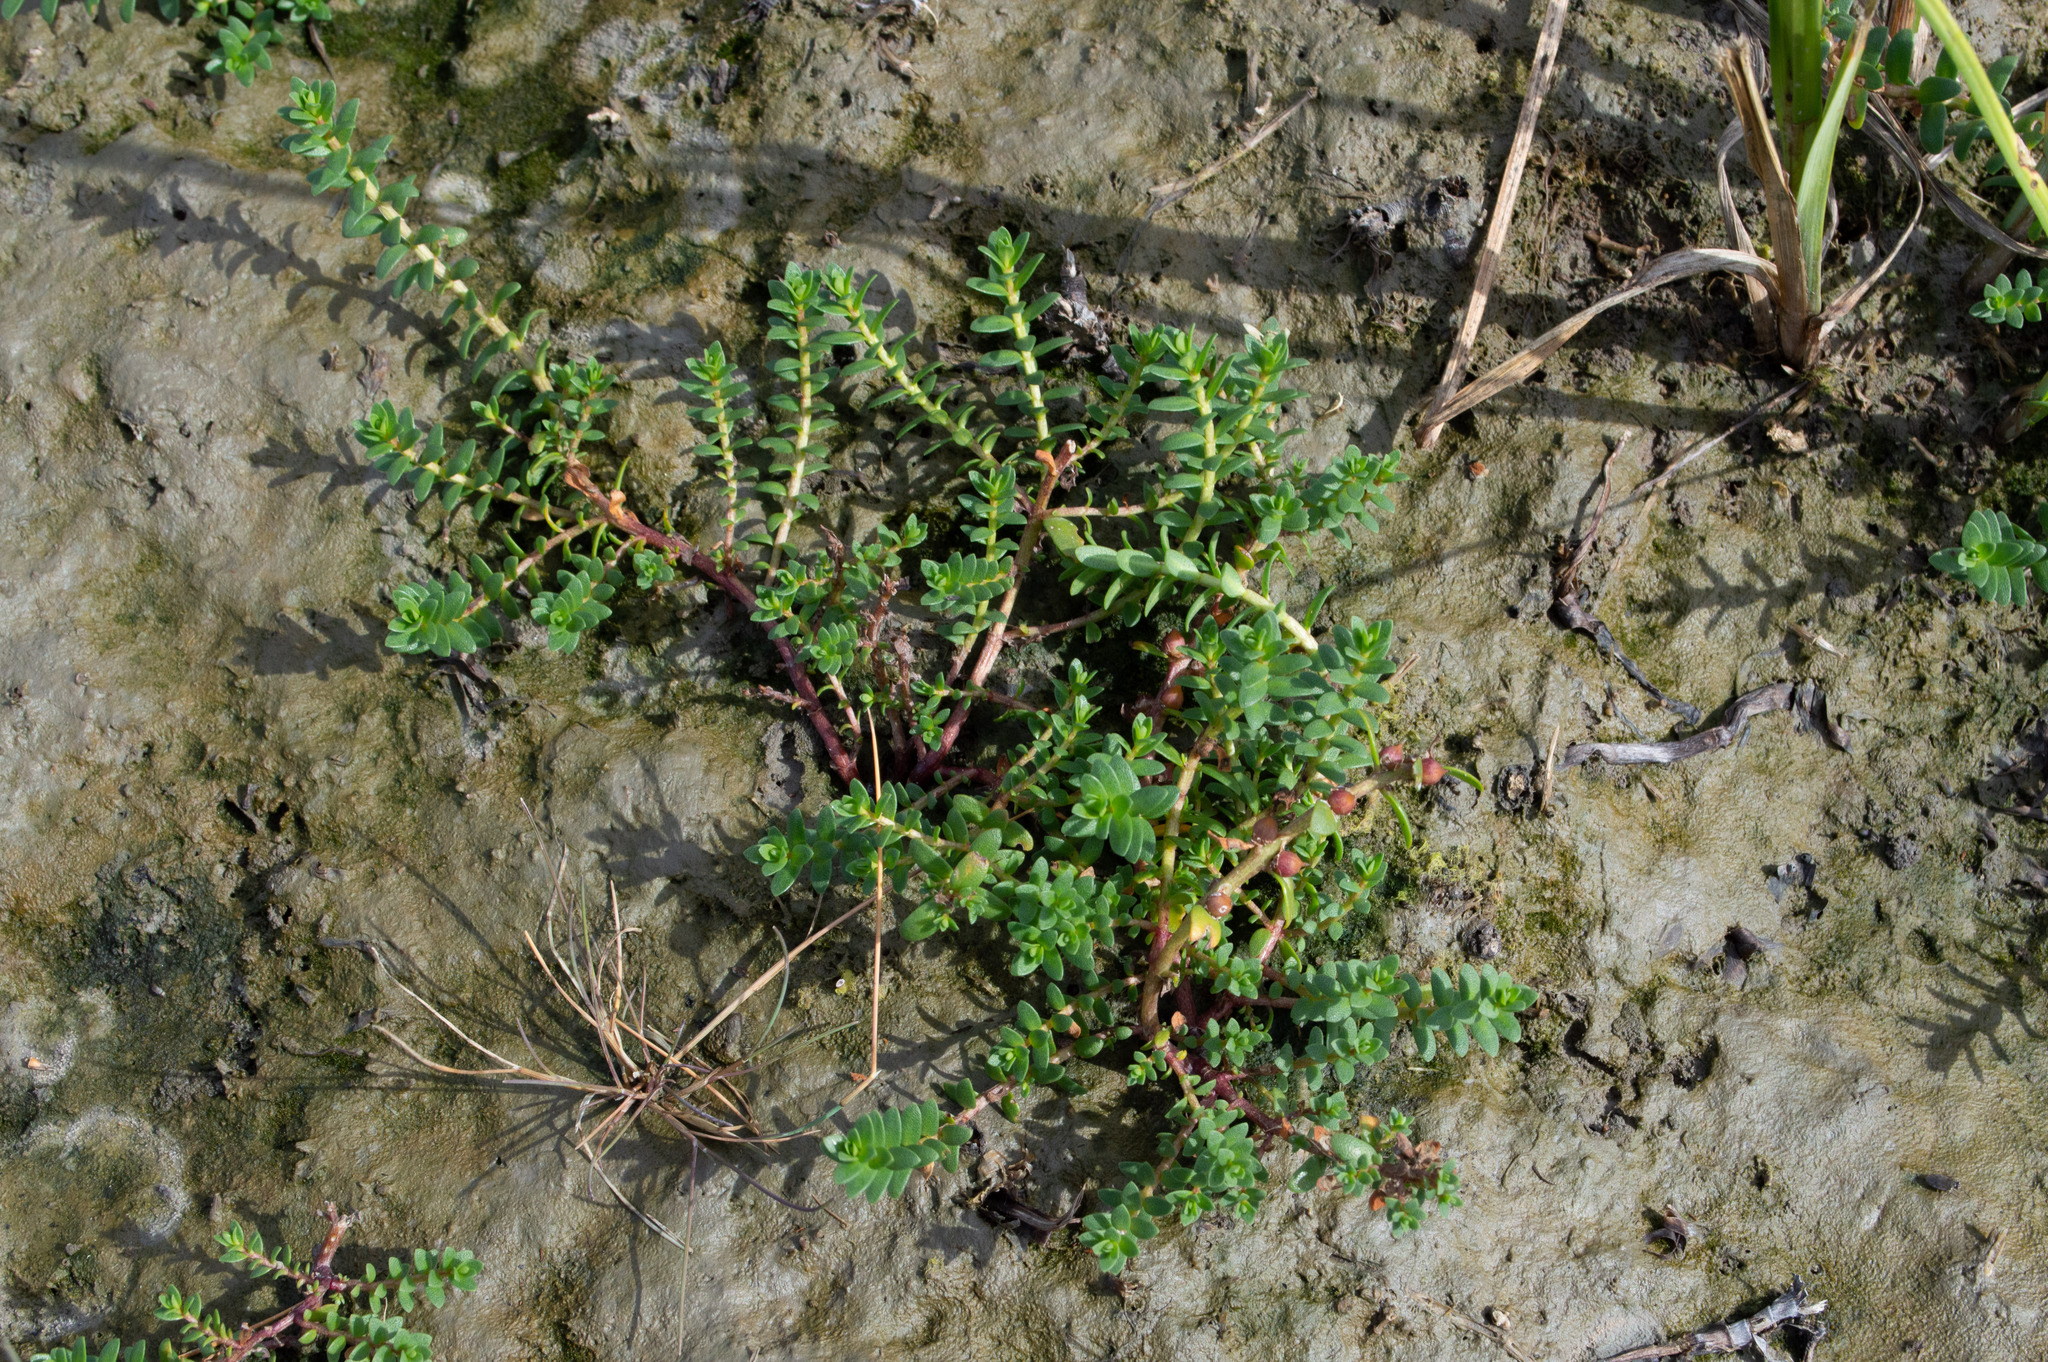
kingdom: Plantae
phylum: Tracheophyta
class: Magnoliopsida
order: Ericales
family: Primulaceae
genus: Lysimachia
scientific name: Lysimachia maritima
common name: Sea milkwort
